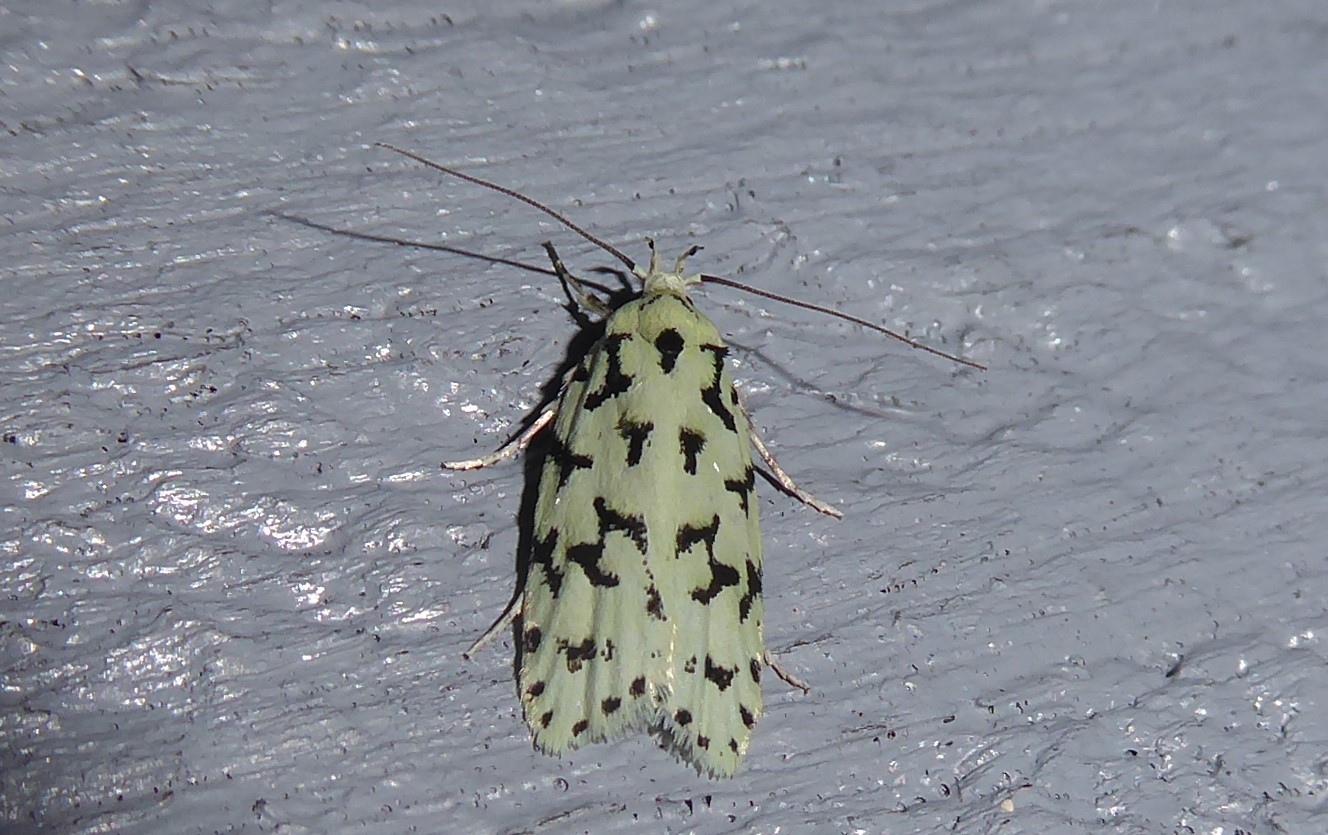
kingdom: Animalia
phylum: Arthropoda
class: Insecta
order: Lepidoptera
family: Oecophoridae
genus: Izatha
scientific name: Izatha huttoni
